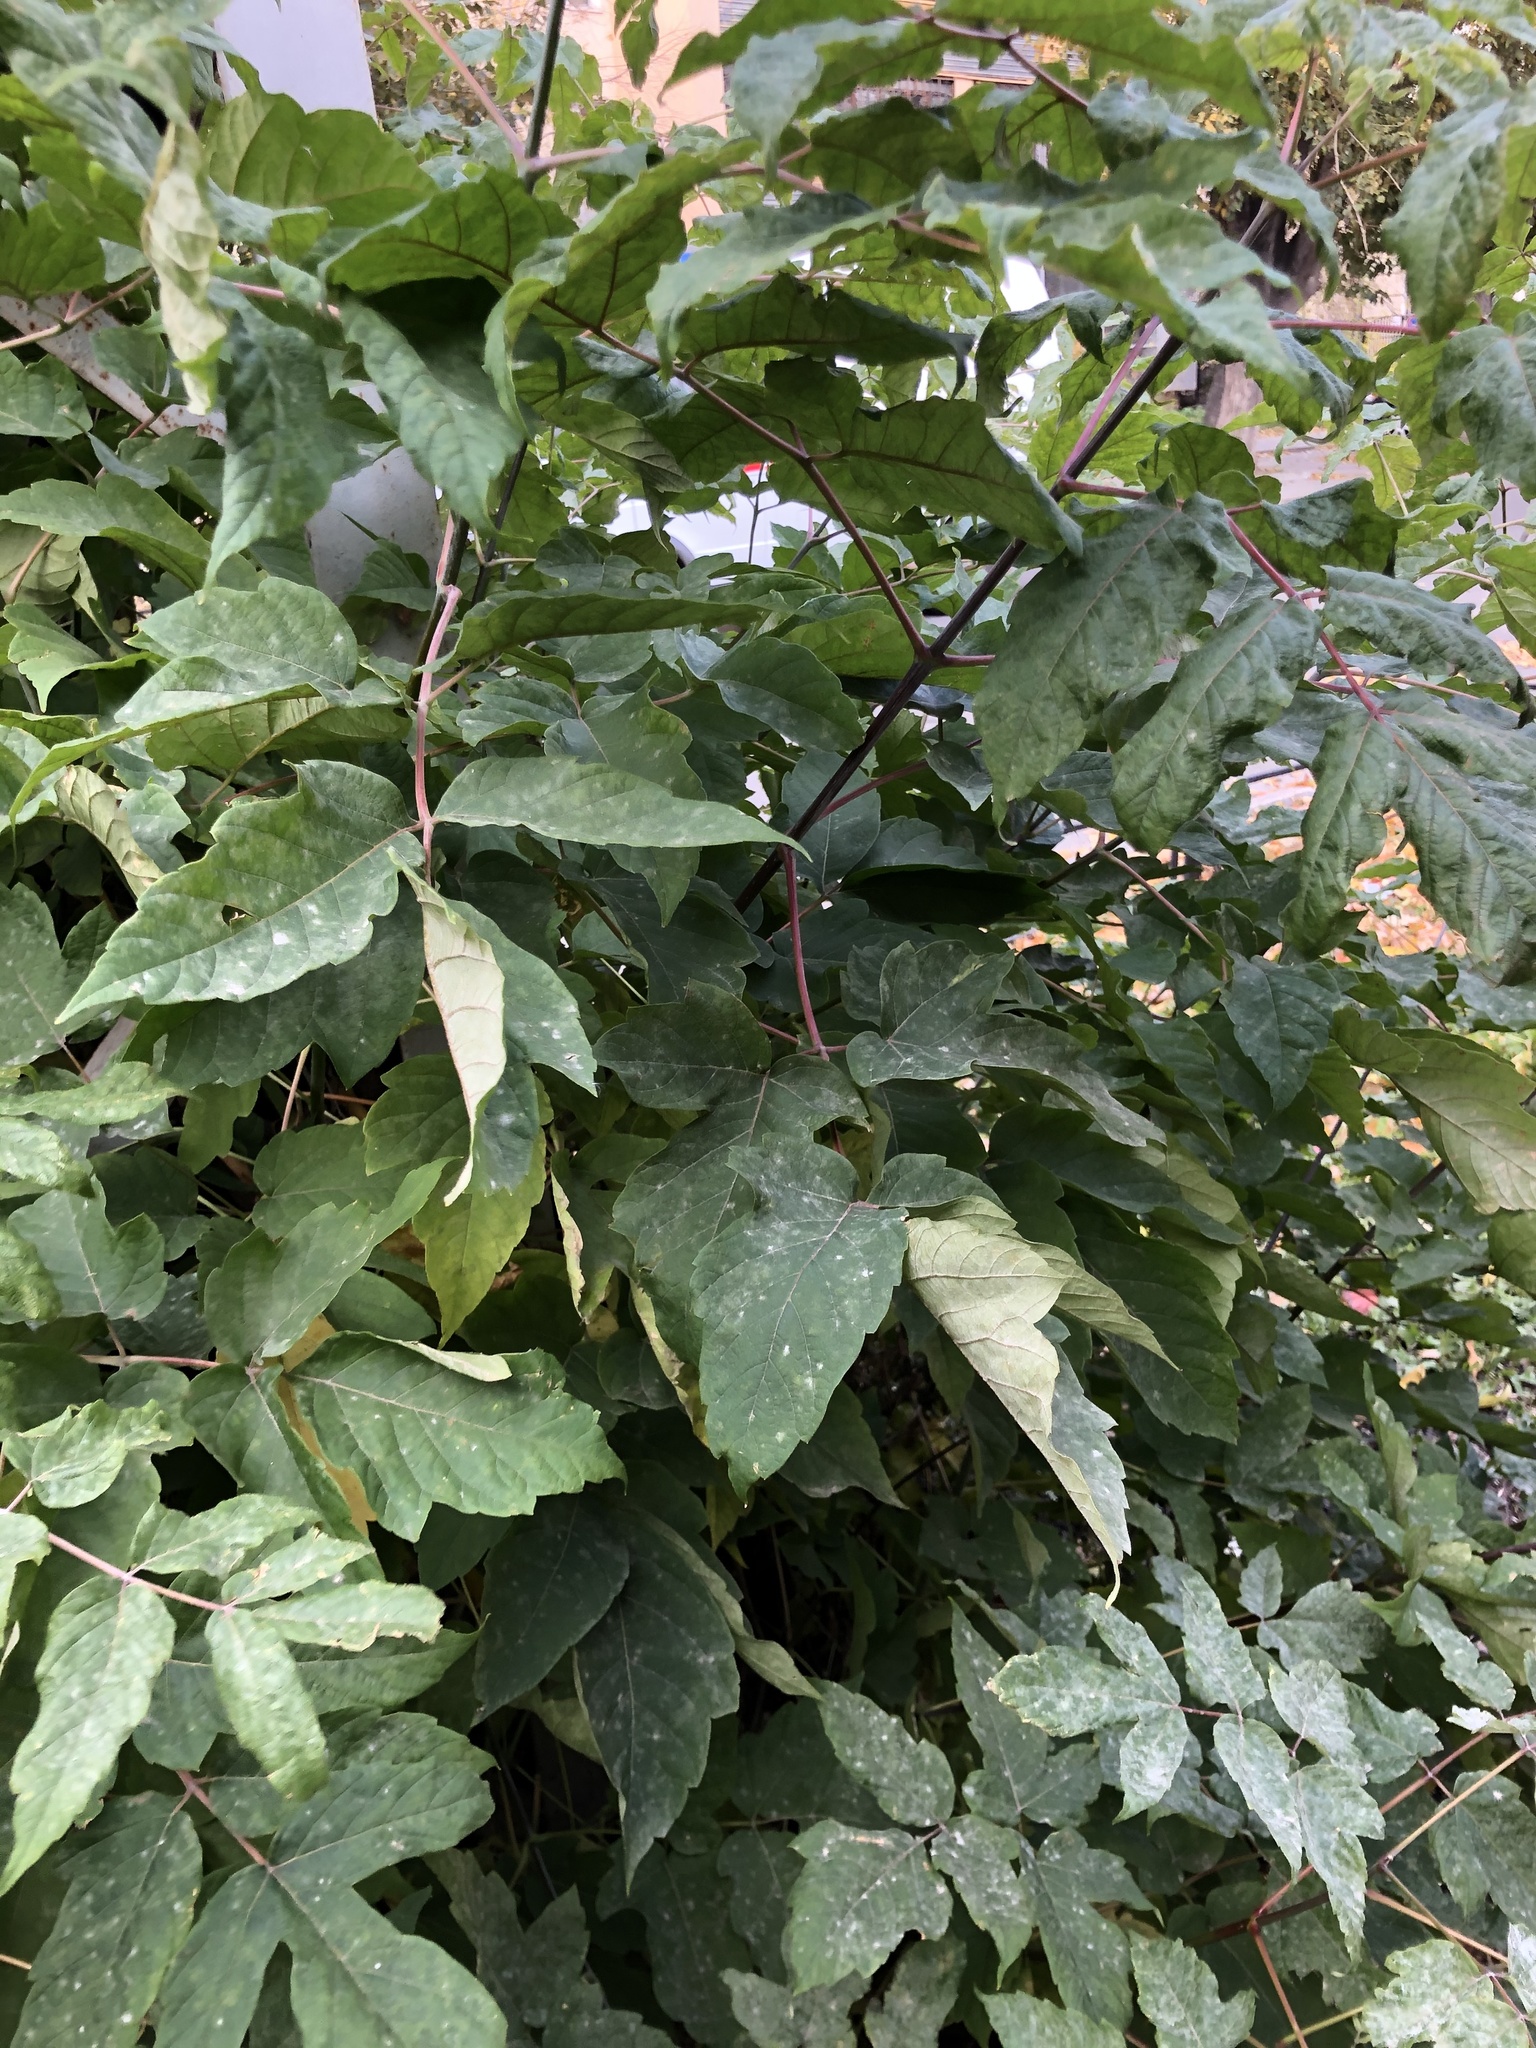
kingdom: Plantae
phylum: Tracheophyta
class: Magnoliopsida
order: Sapindales
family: Sapindaceae
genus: Acer
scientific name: Acer negundo
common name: Ashleaf maple
